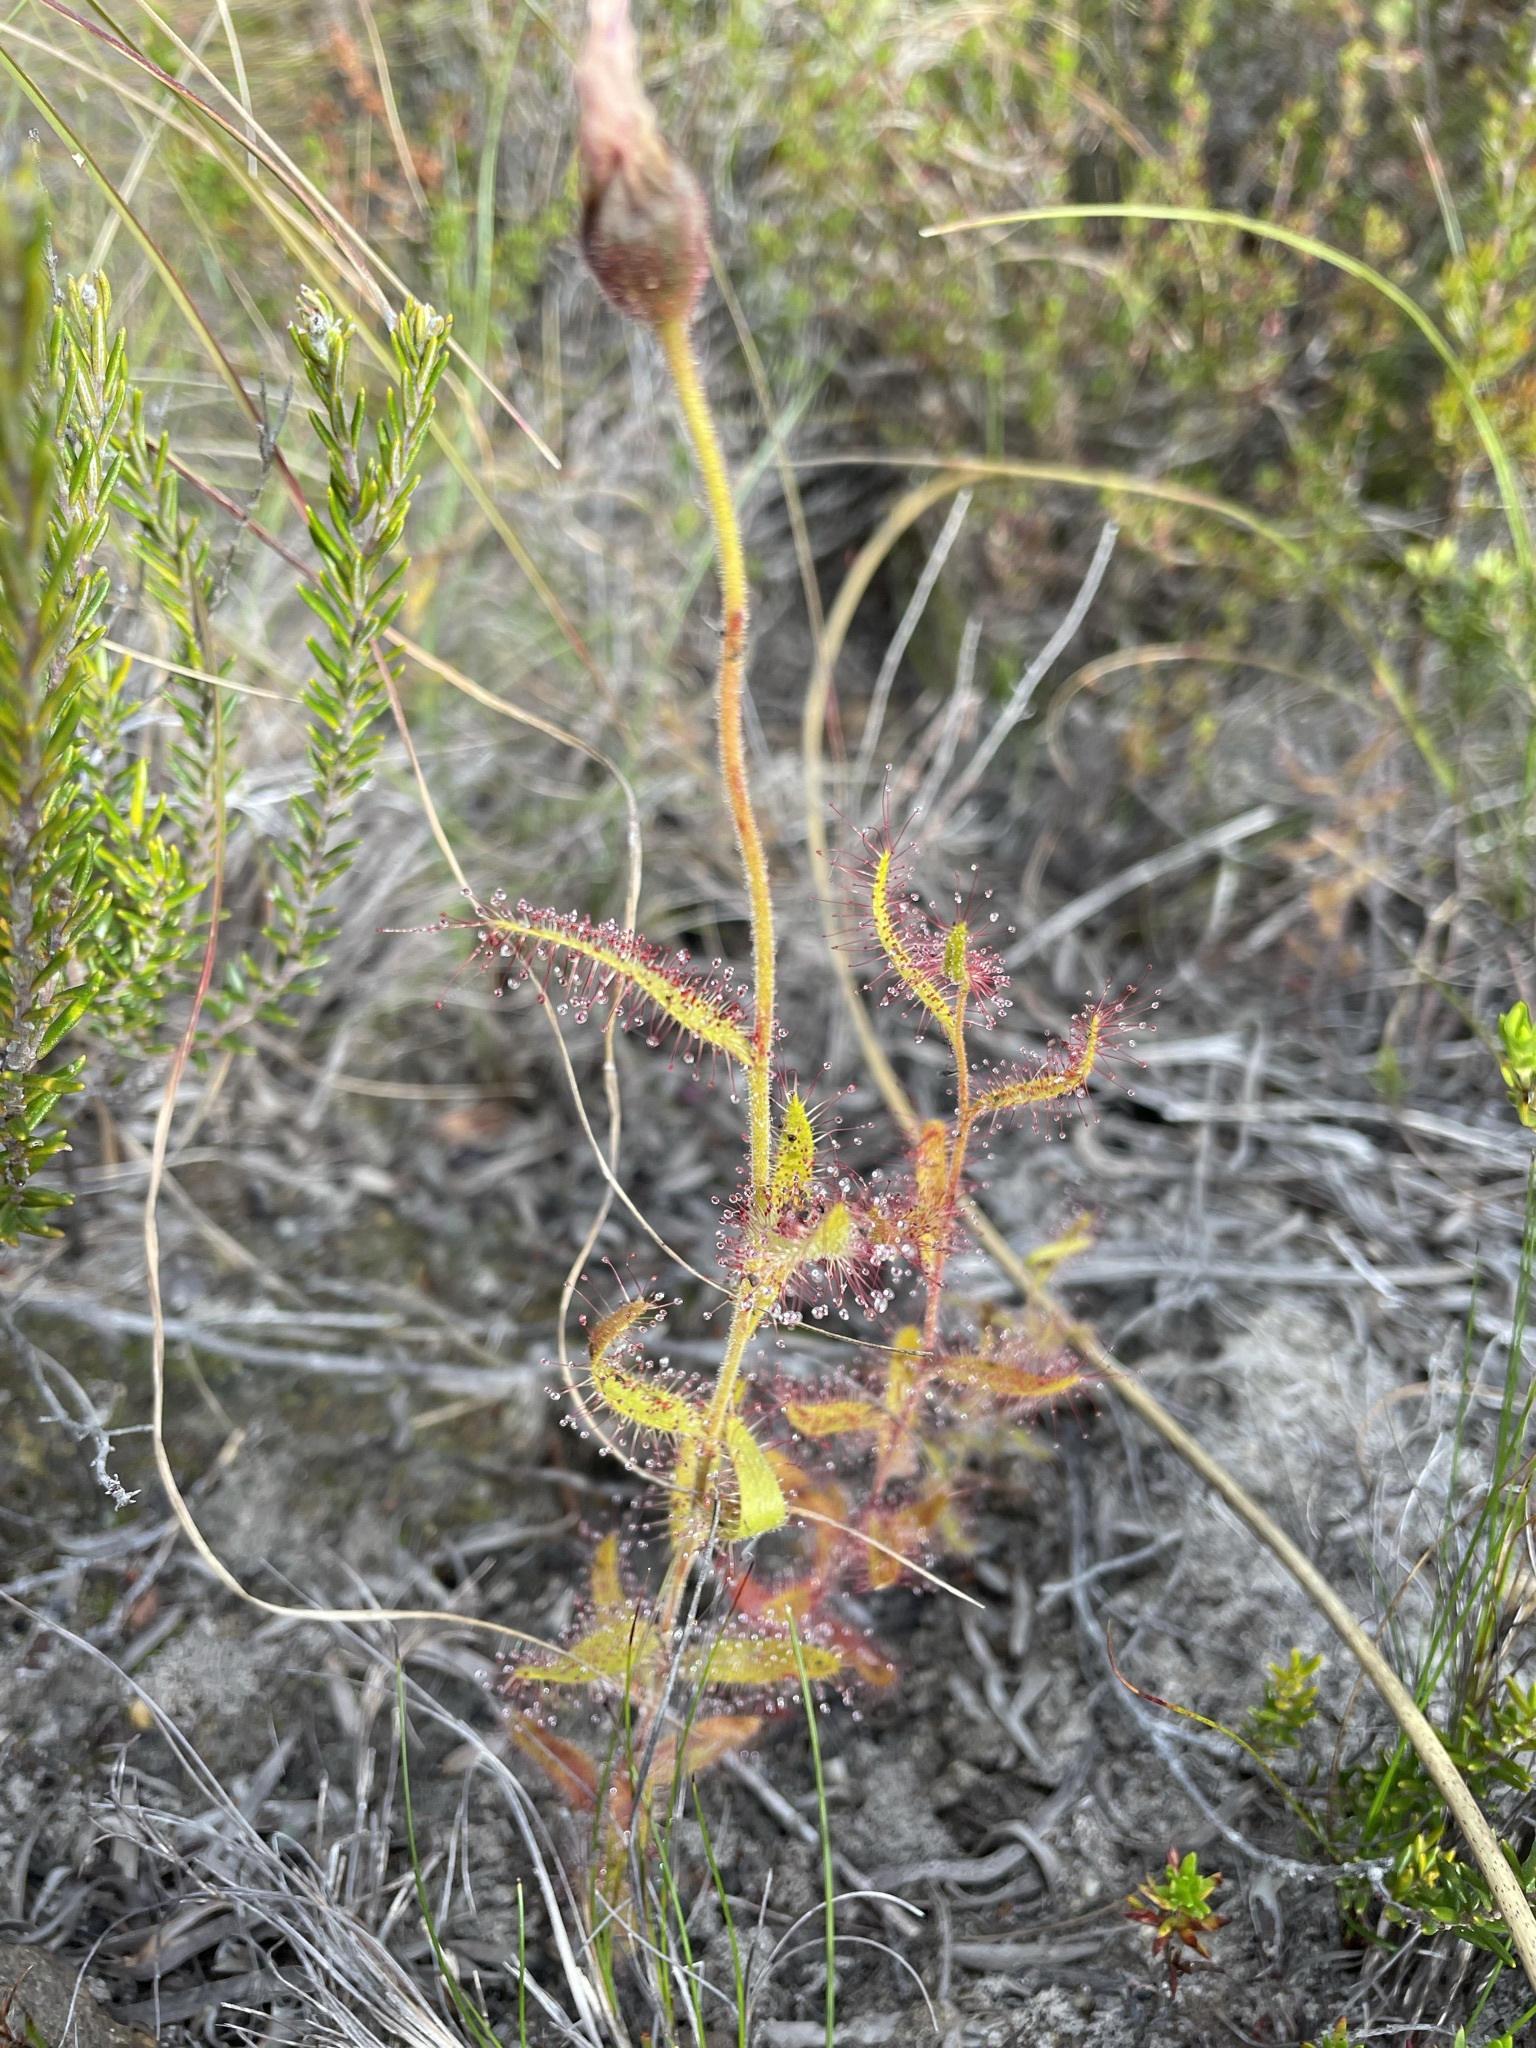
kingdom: Plantae
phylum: Tracheophyta
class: Magnoliopsida
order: Caryophyllales
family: Droseraceae
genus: Drosera
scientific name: Drosera cistiflora
